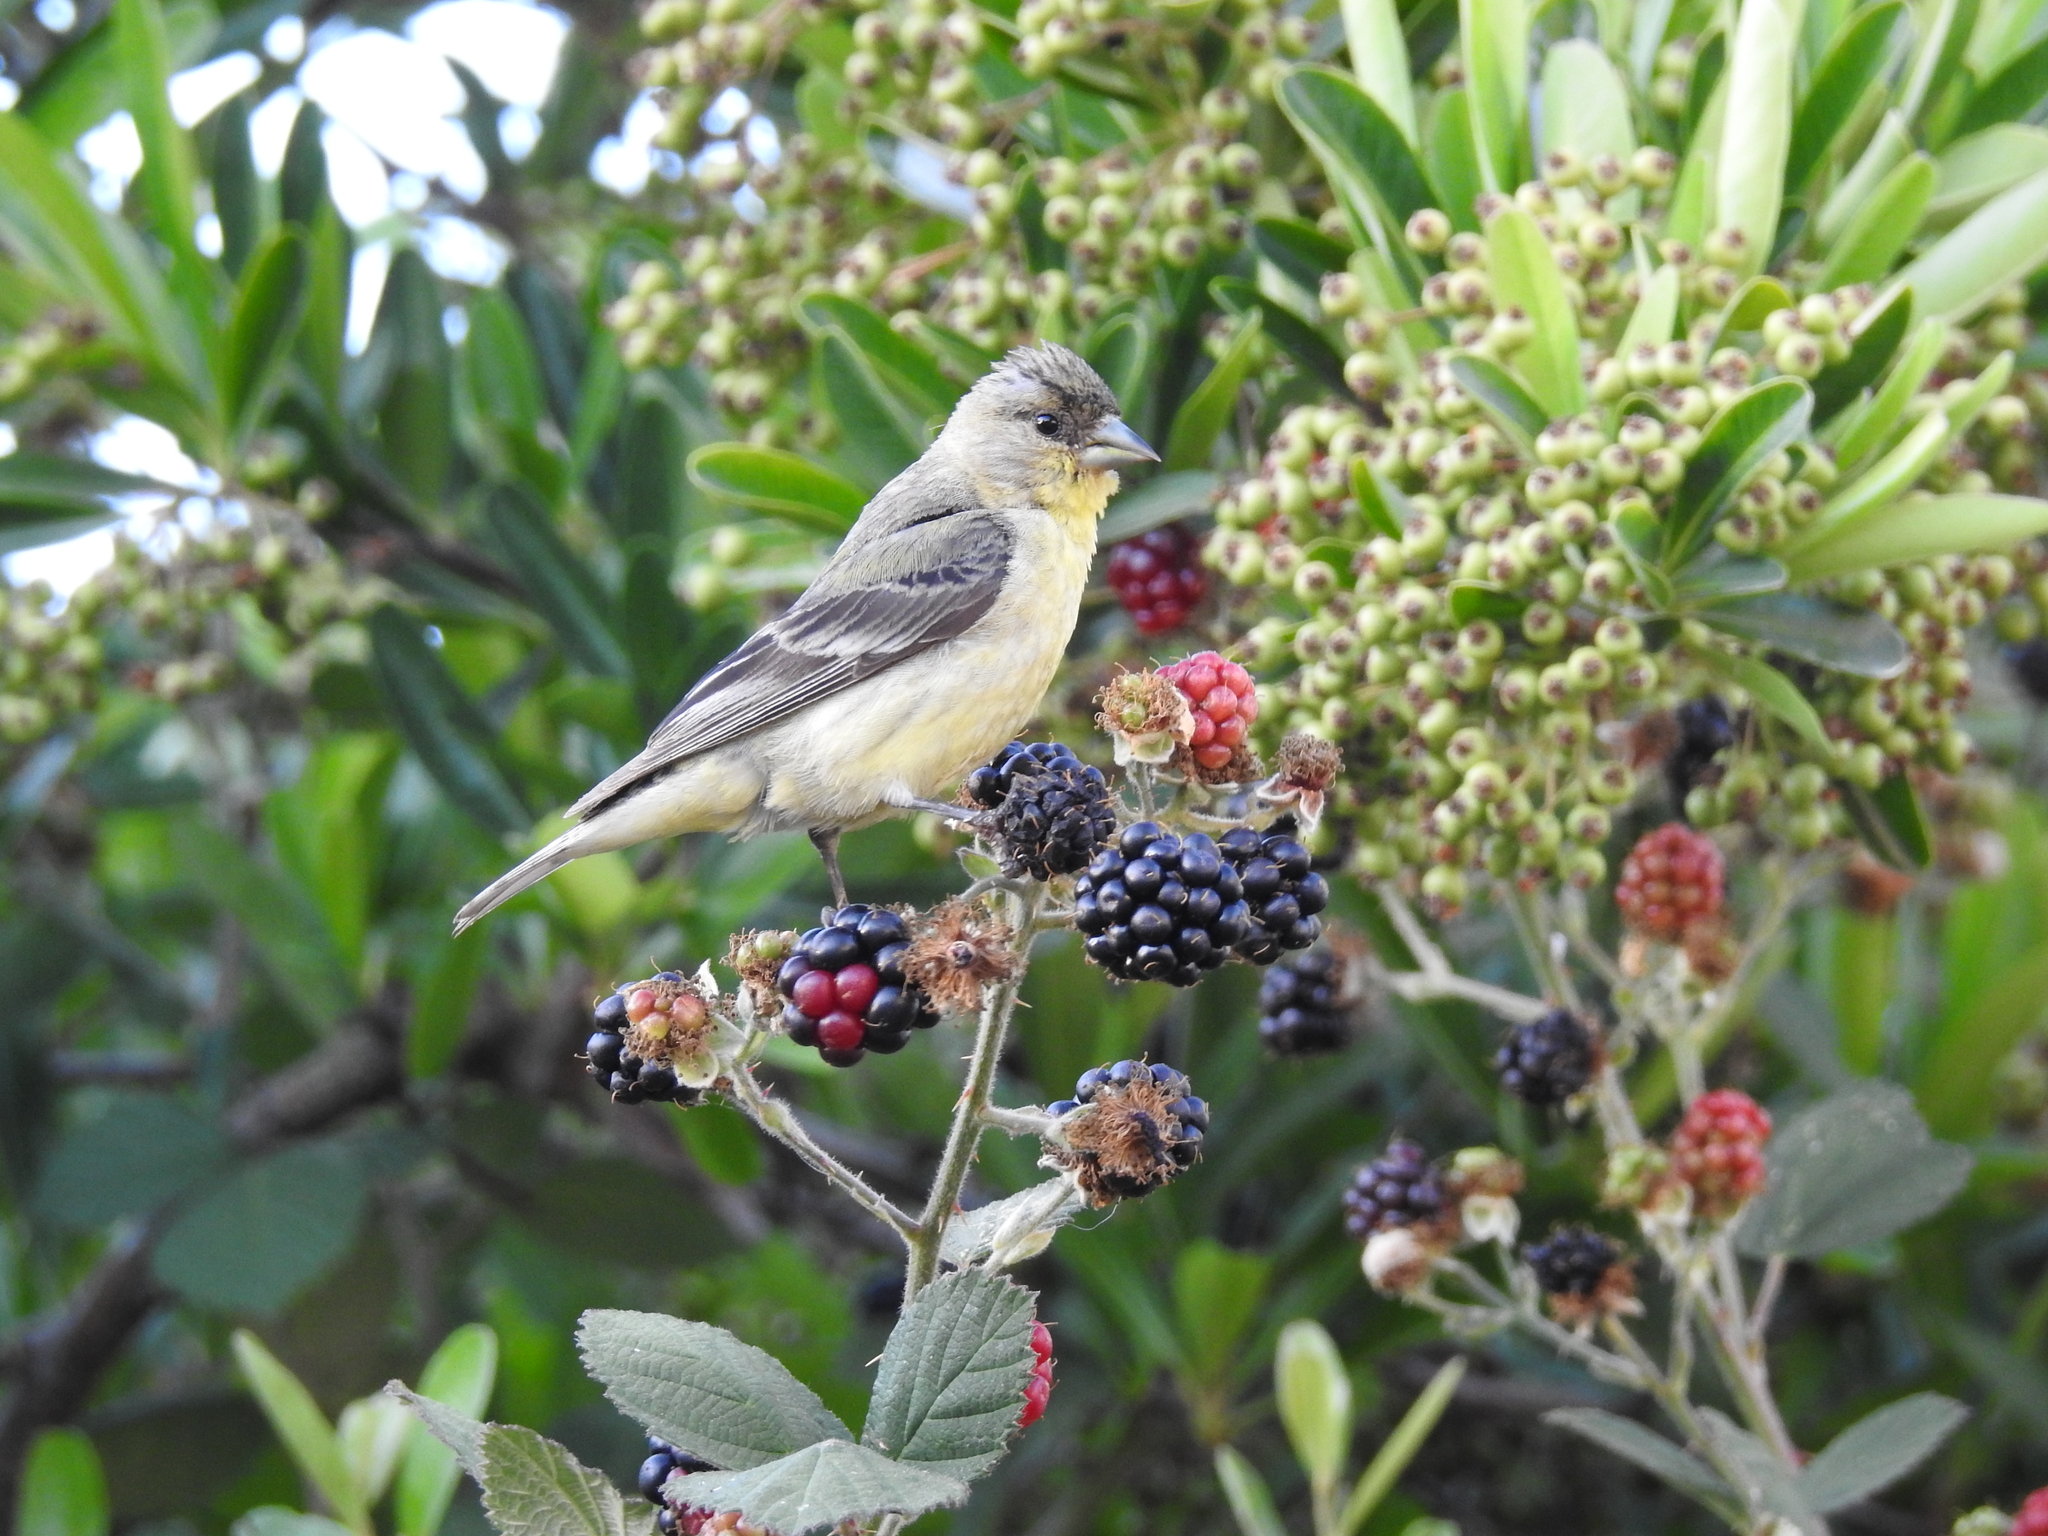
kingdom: Animalia
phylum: Chordata
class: Aves
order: Passeriformes
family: Fringillidae
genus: Spinus
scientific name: Spinus psaltria
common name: Lesser goldfinch
